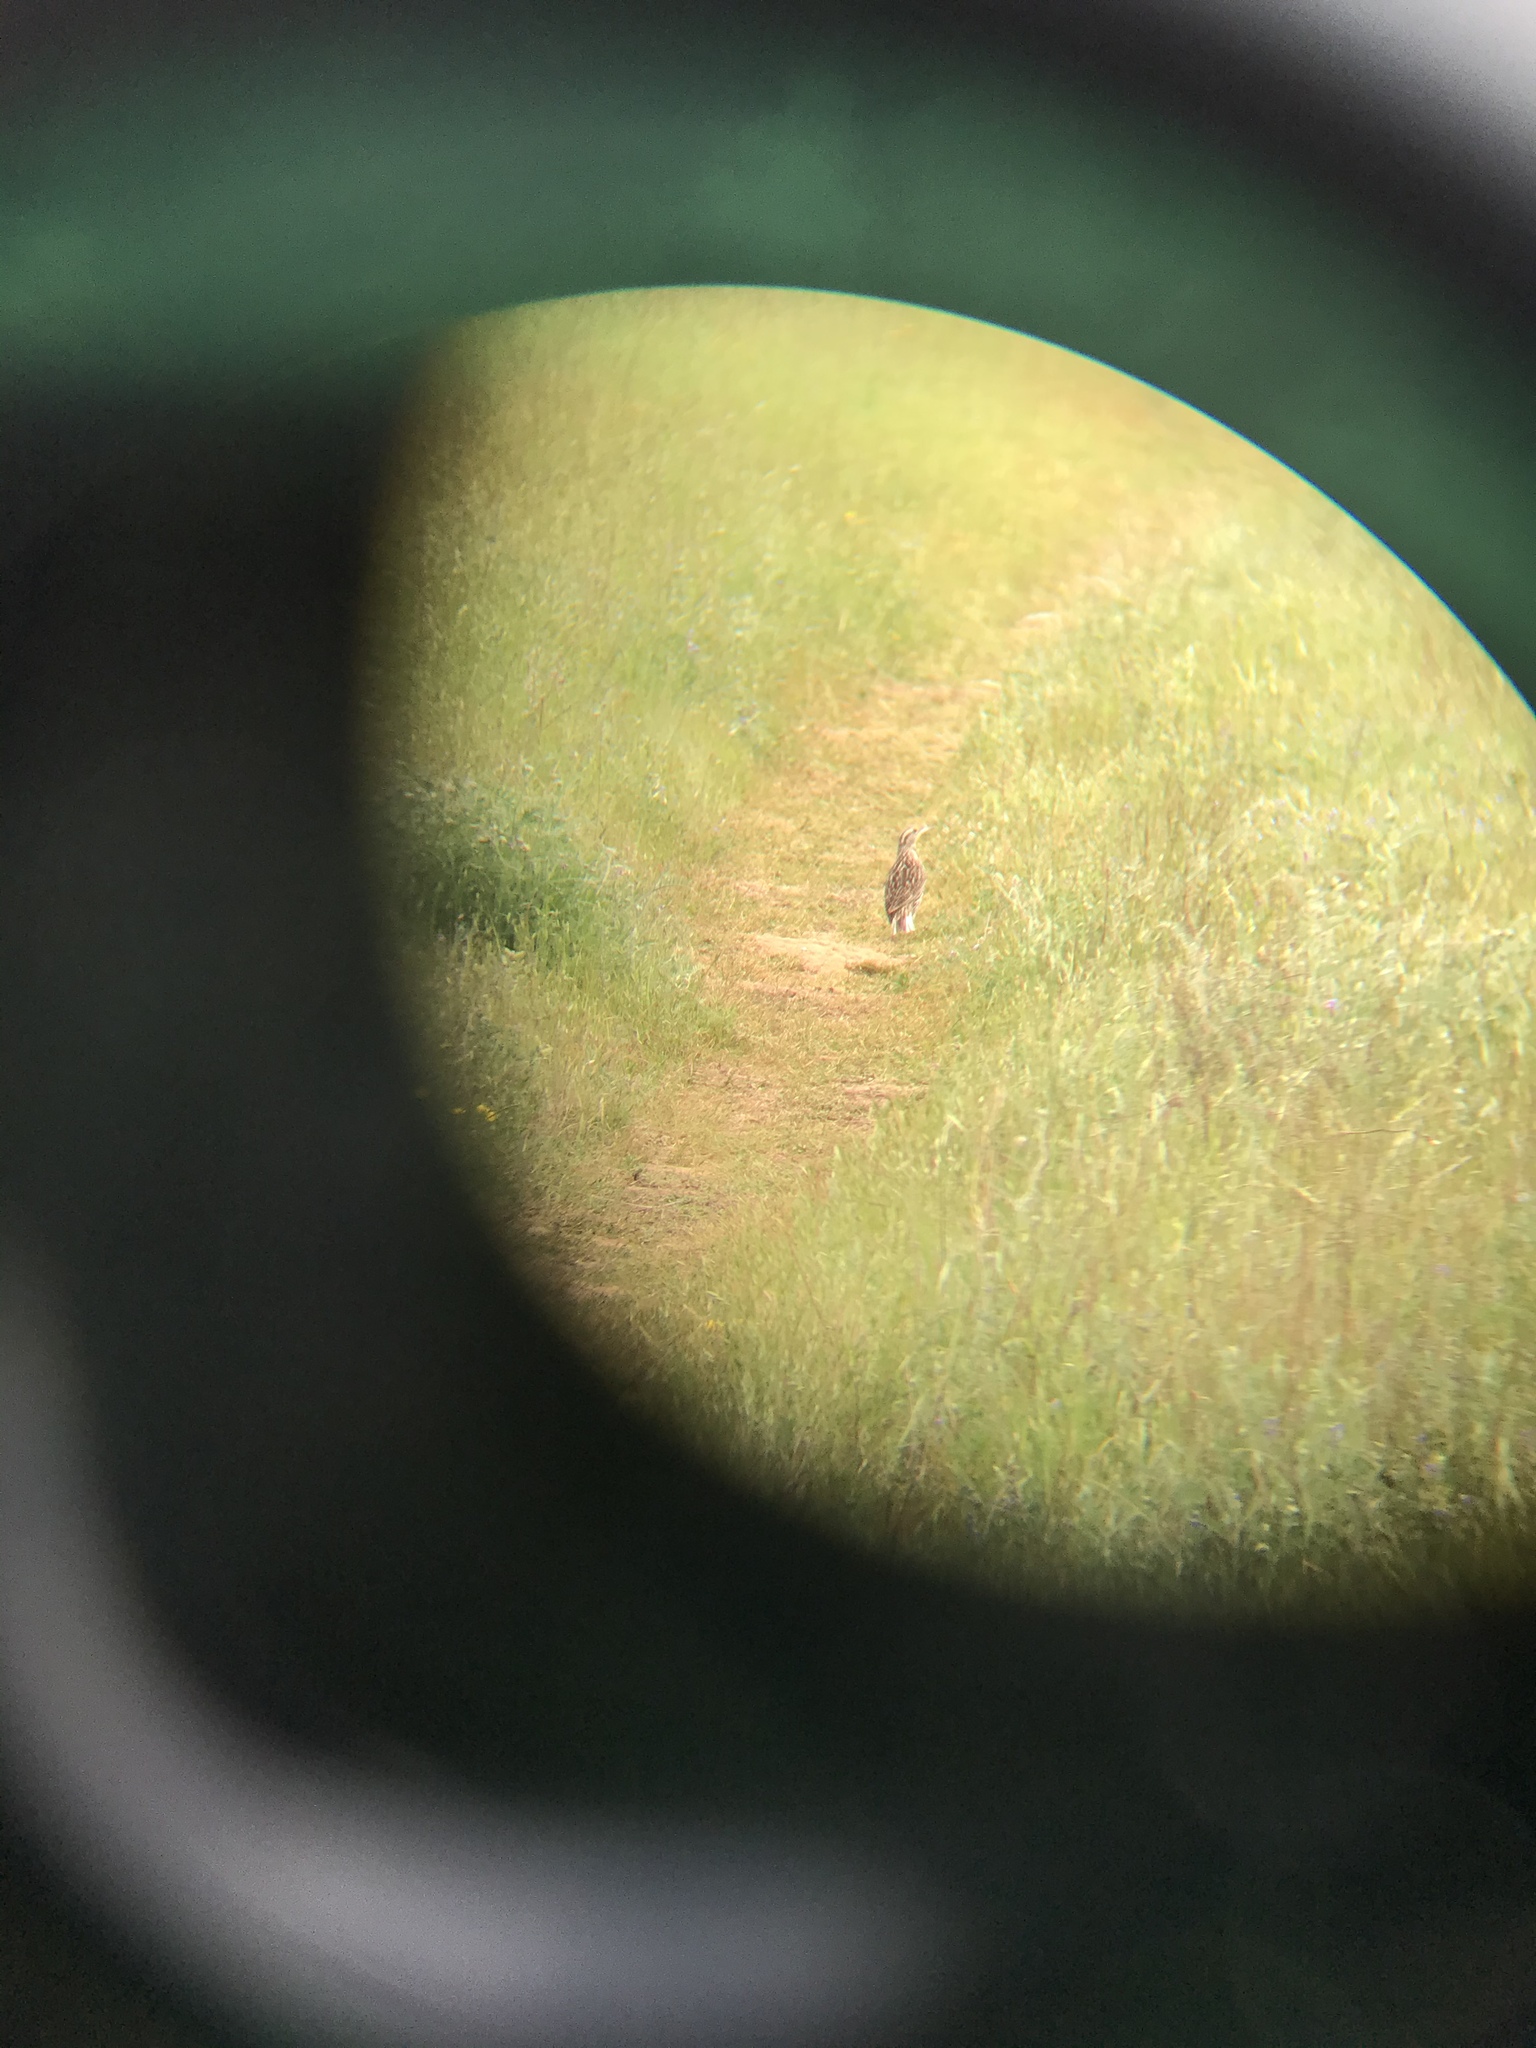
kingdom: Animalia
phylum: Chordata
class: Aves
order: Passeriformes
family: Icteridae
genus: Sturnella
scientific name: Sturnella neglecta
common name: Western meadowlark
